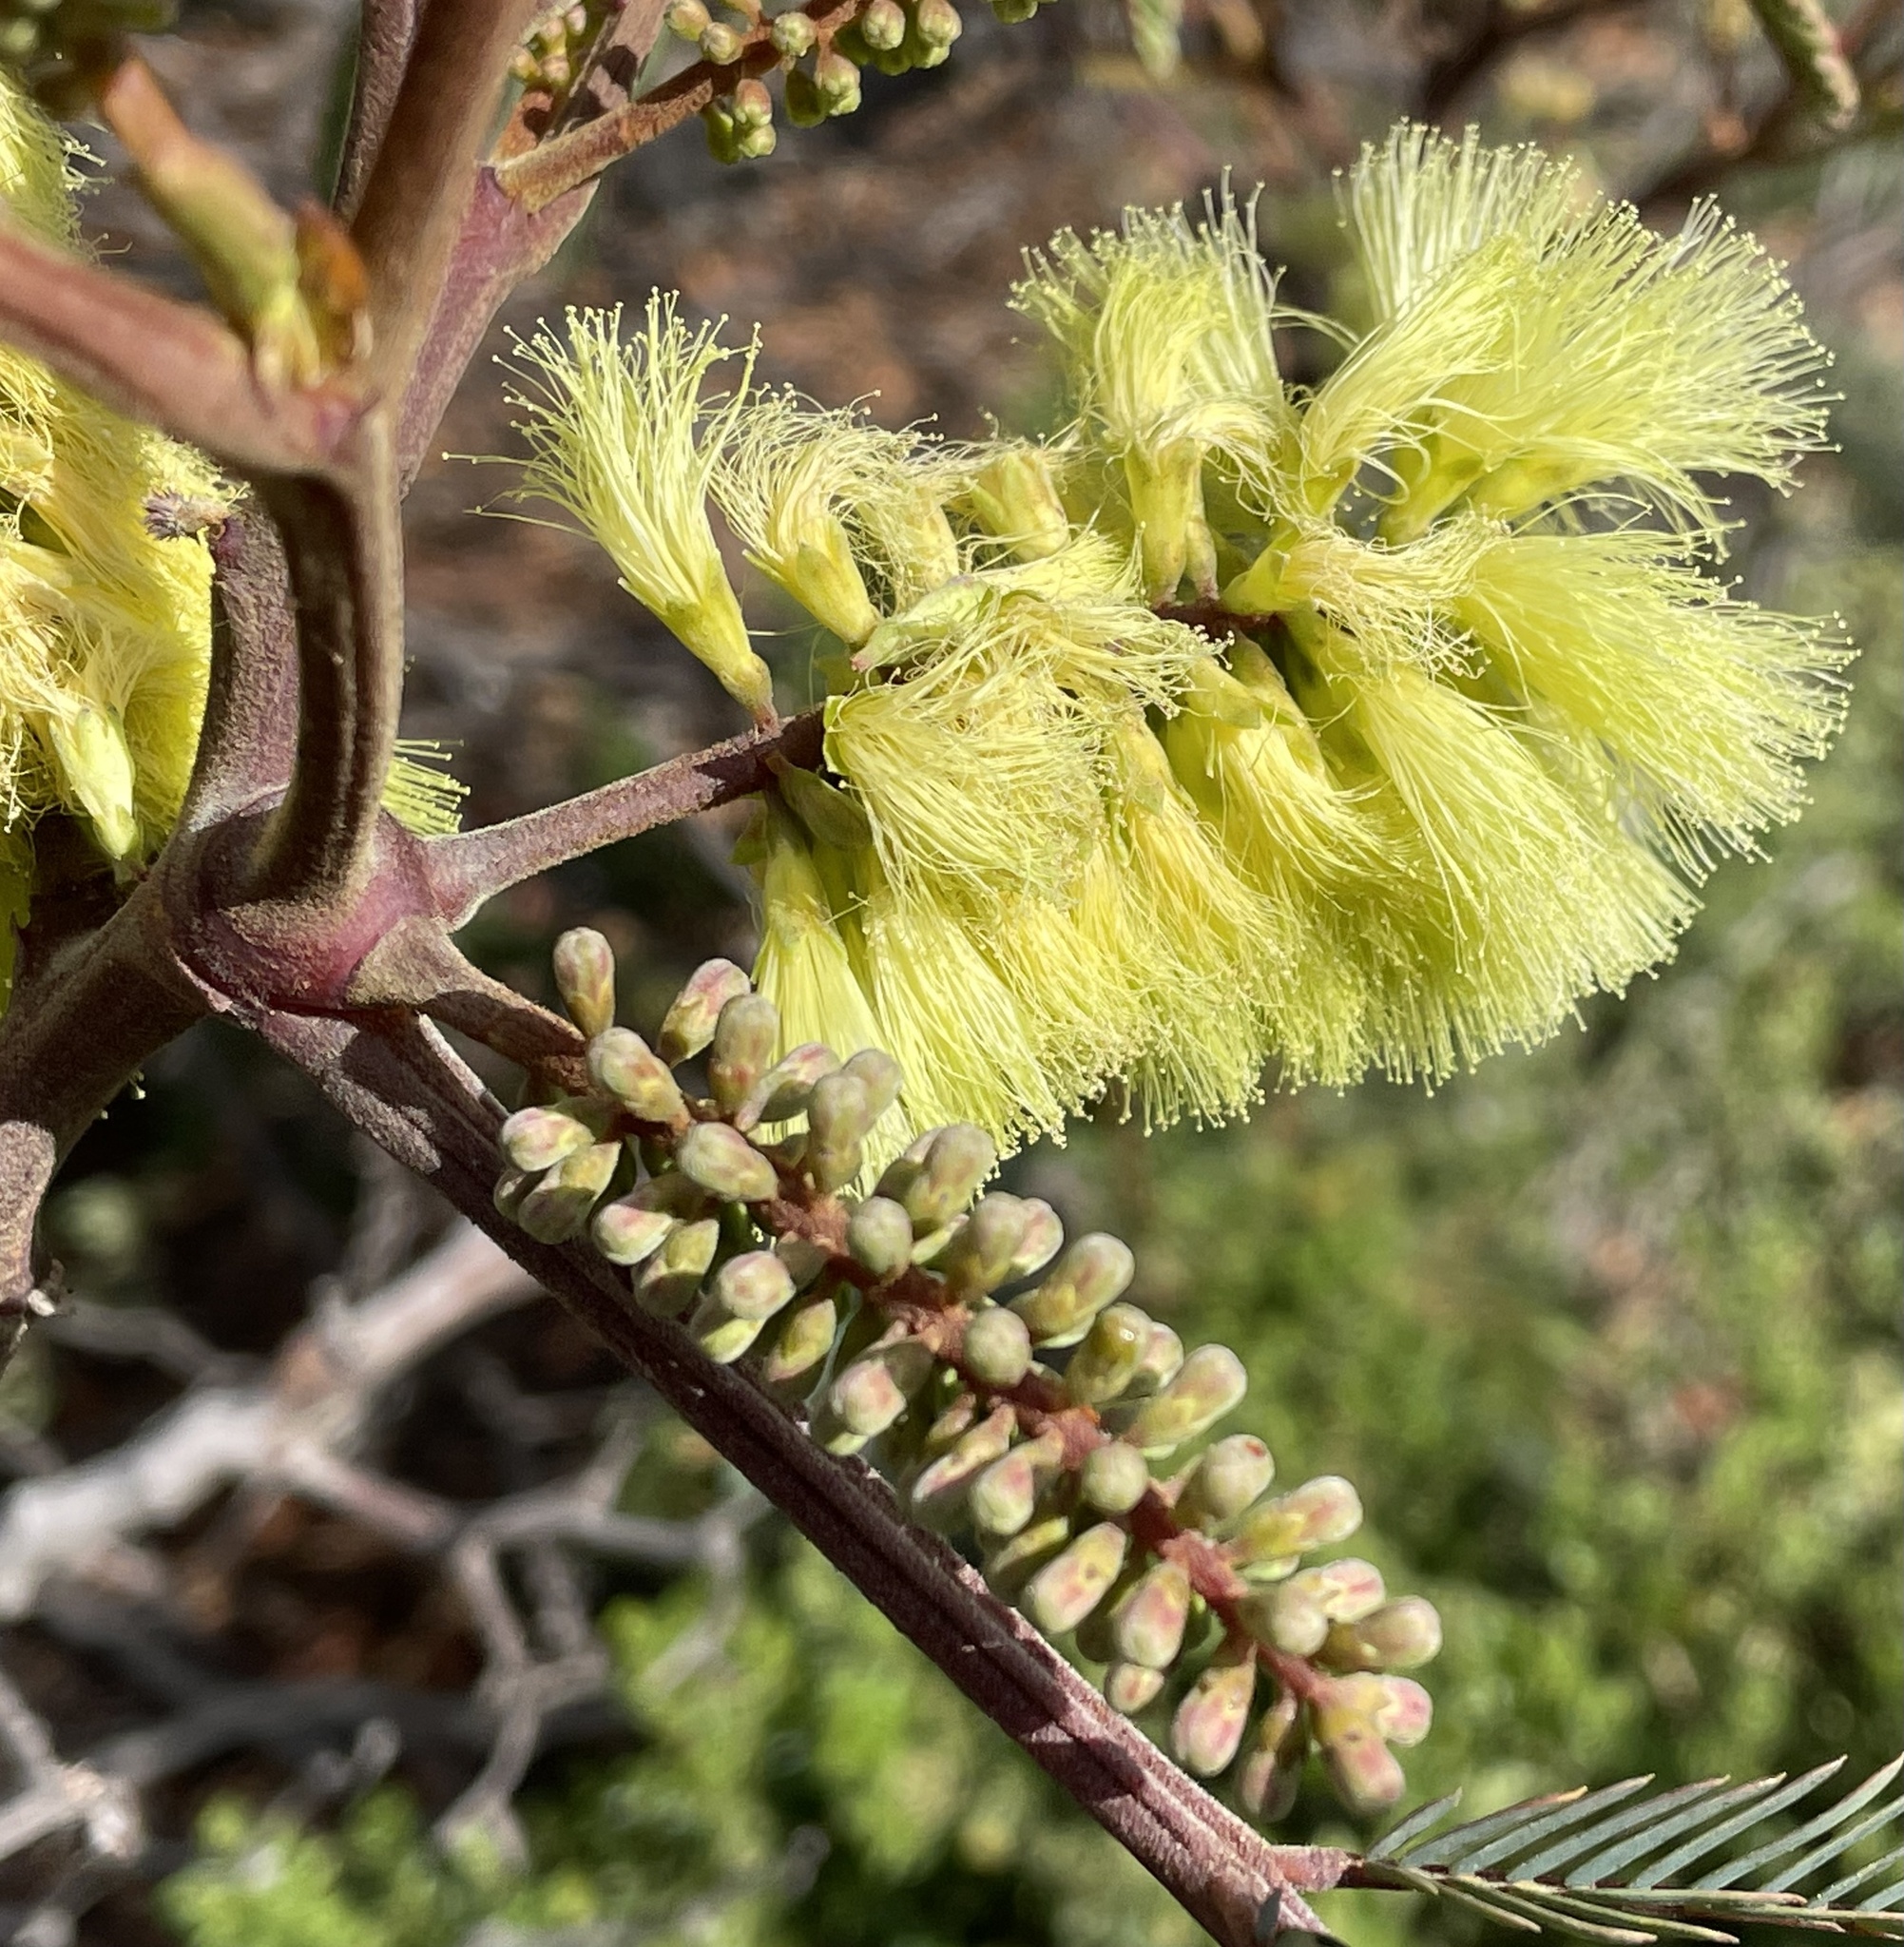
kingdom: Plantae
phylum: Tracheophyta
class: Magnoliopsida
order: Fabales
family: Fabaceae
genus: Paraserianthes
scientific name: Paraserianthes lophantha
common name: Plume albizia
